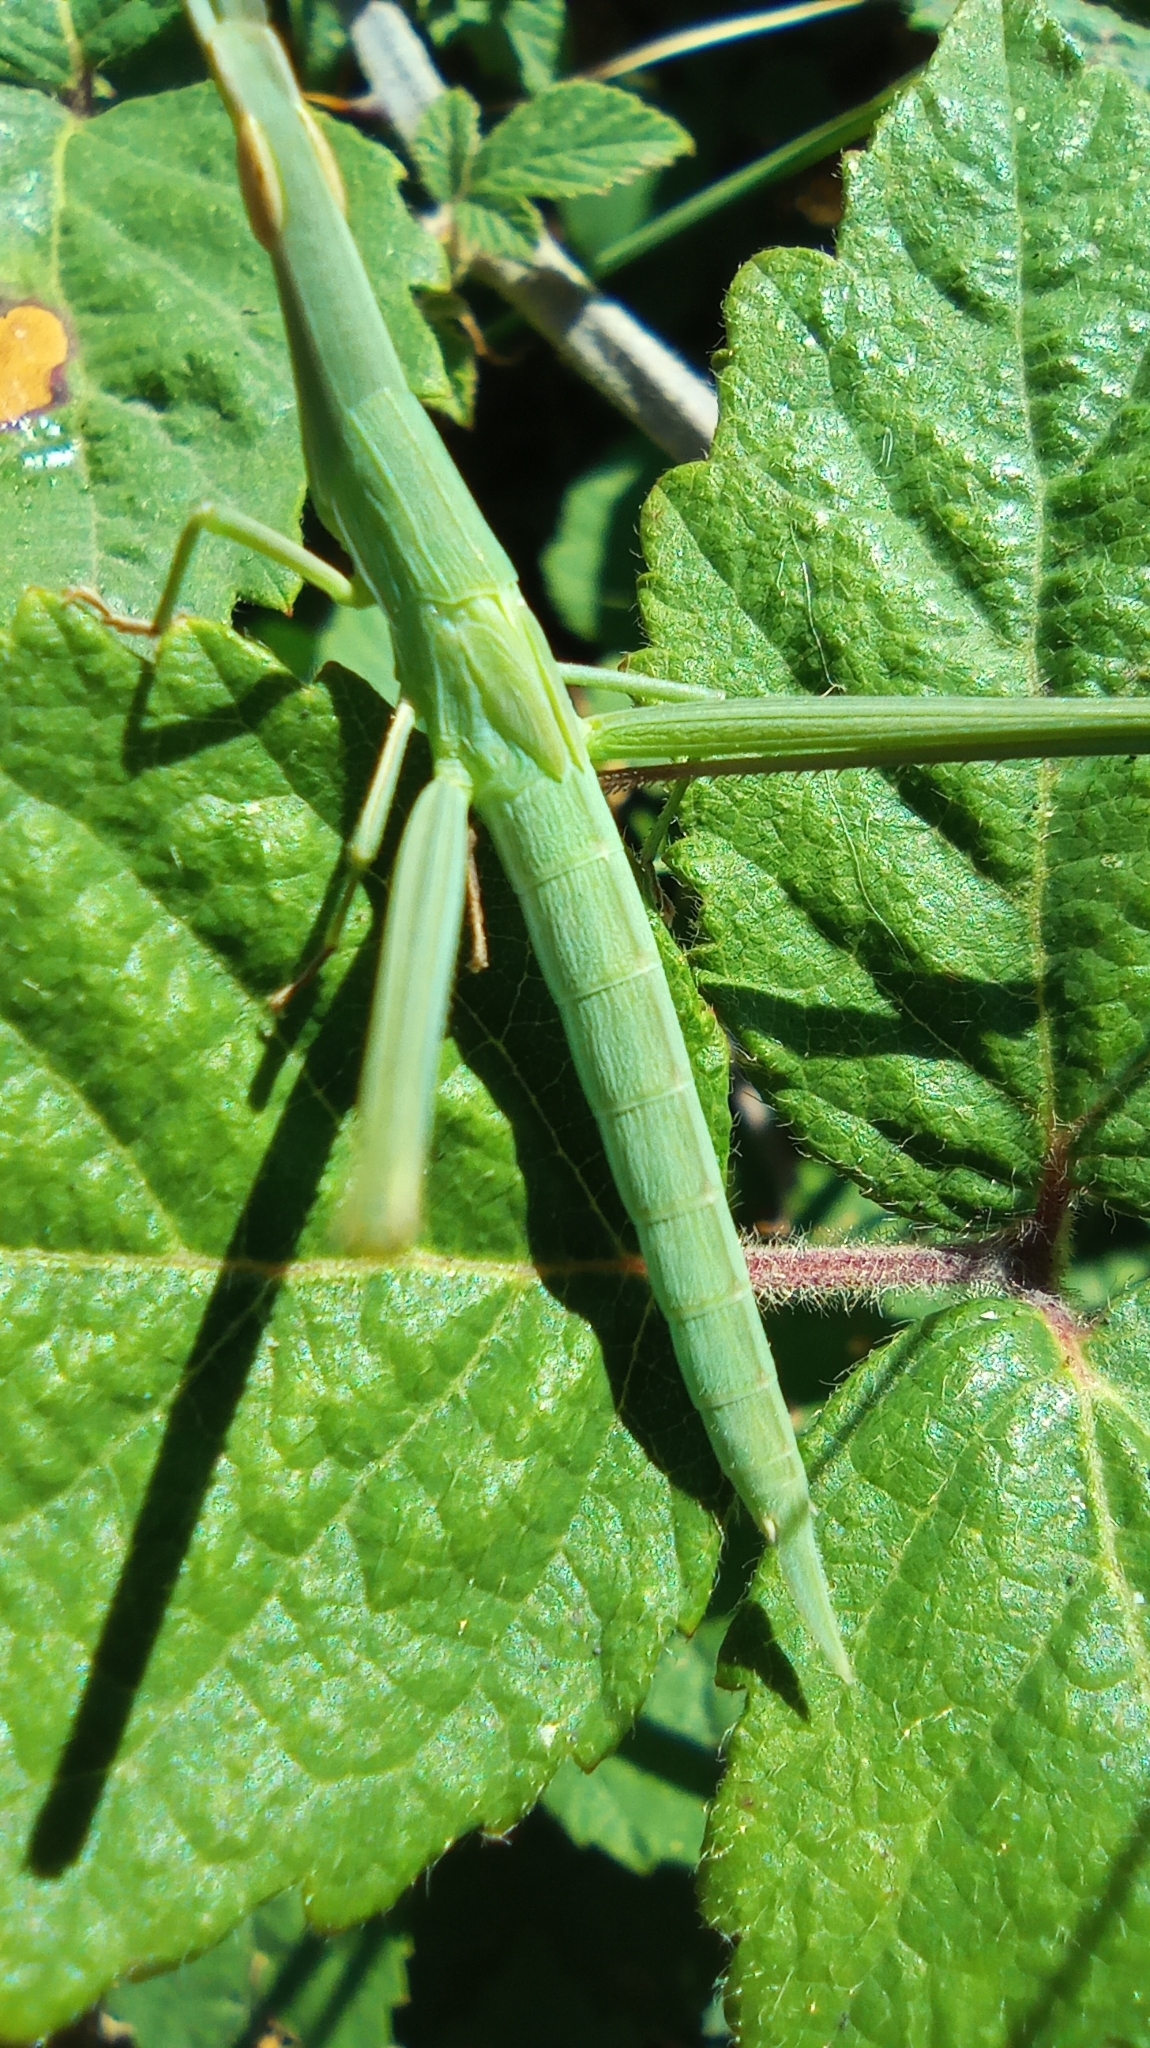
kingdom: Animalia
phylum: Arthropoda
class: Insecta
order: Orthoptera
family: Acrididae
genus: Acrida
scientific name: Acrida ungarica
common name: Common cone-headed grasshopper
